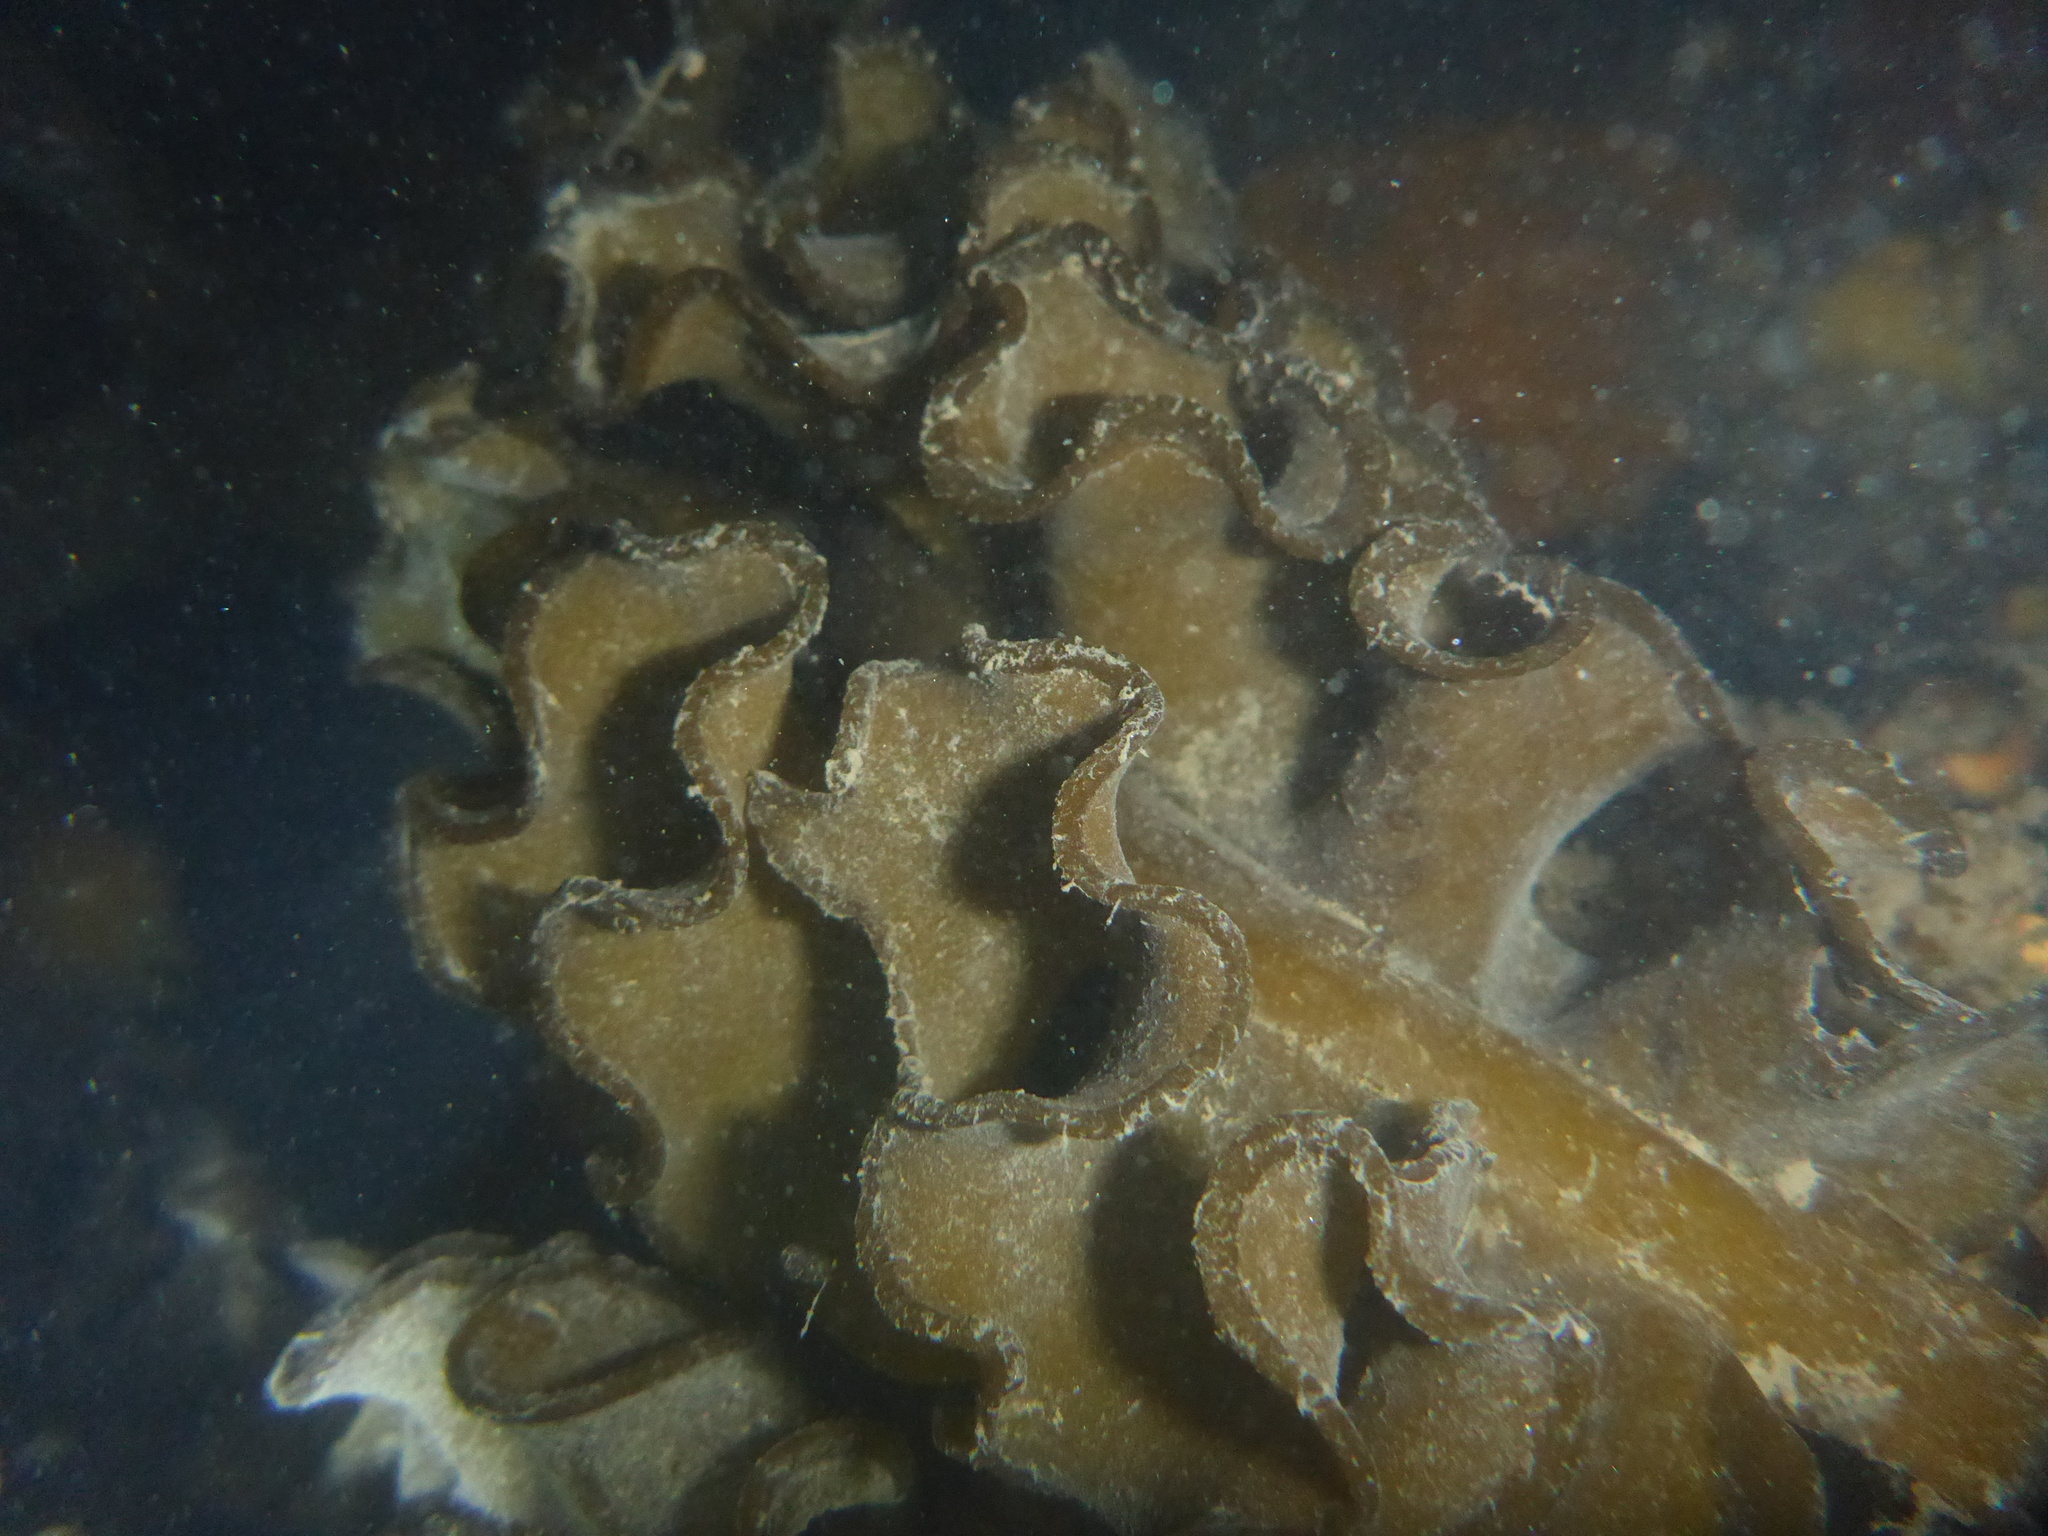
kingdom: Chromista
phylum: Ochrophyta
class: Phaeophyceae
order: Laminariales
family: Alariaceae
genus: Undaria
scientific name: Undaria pinnatifida
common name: Asian kelp
